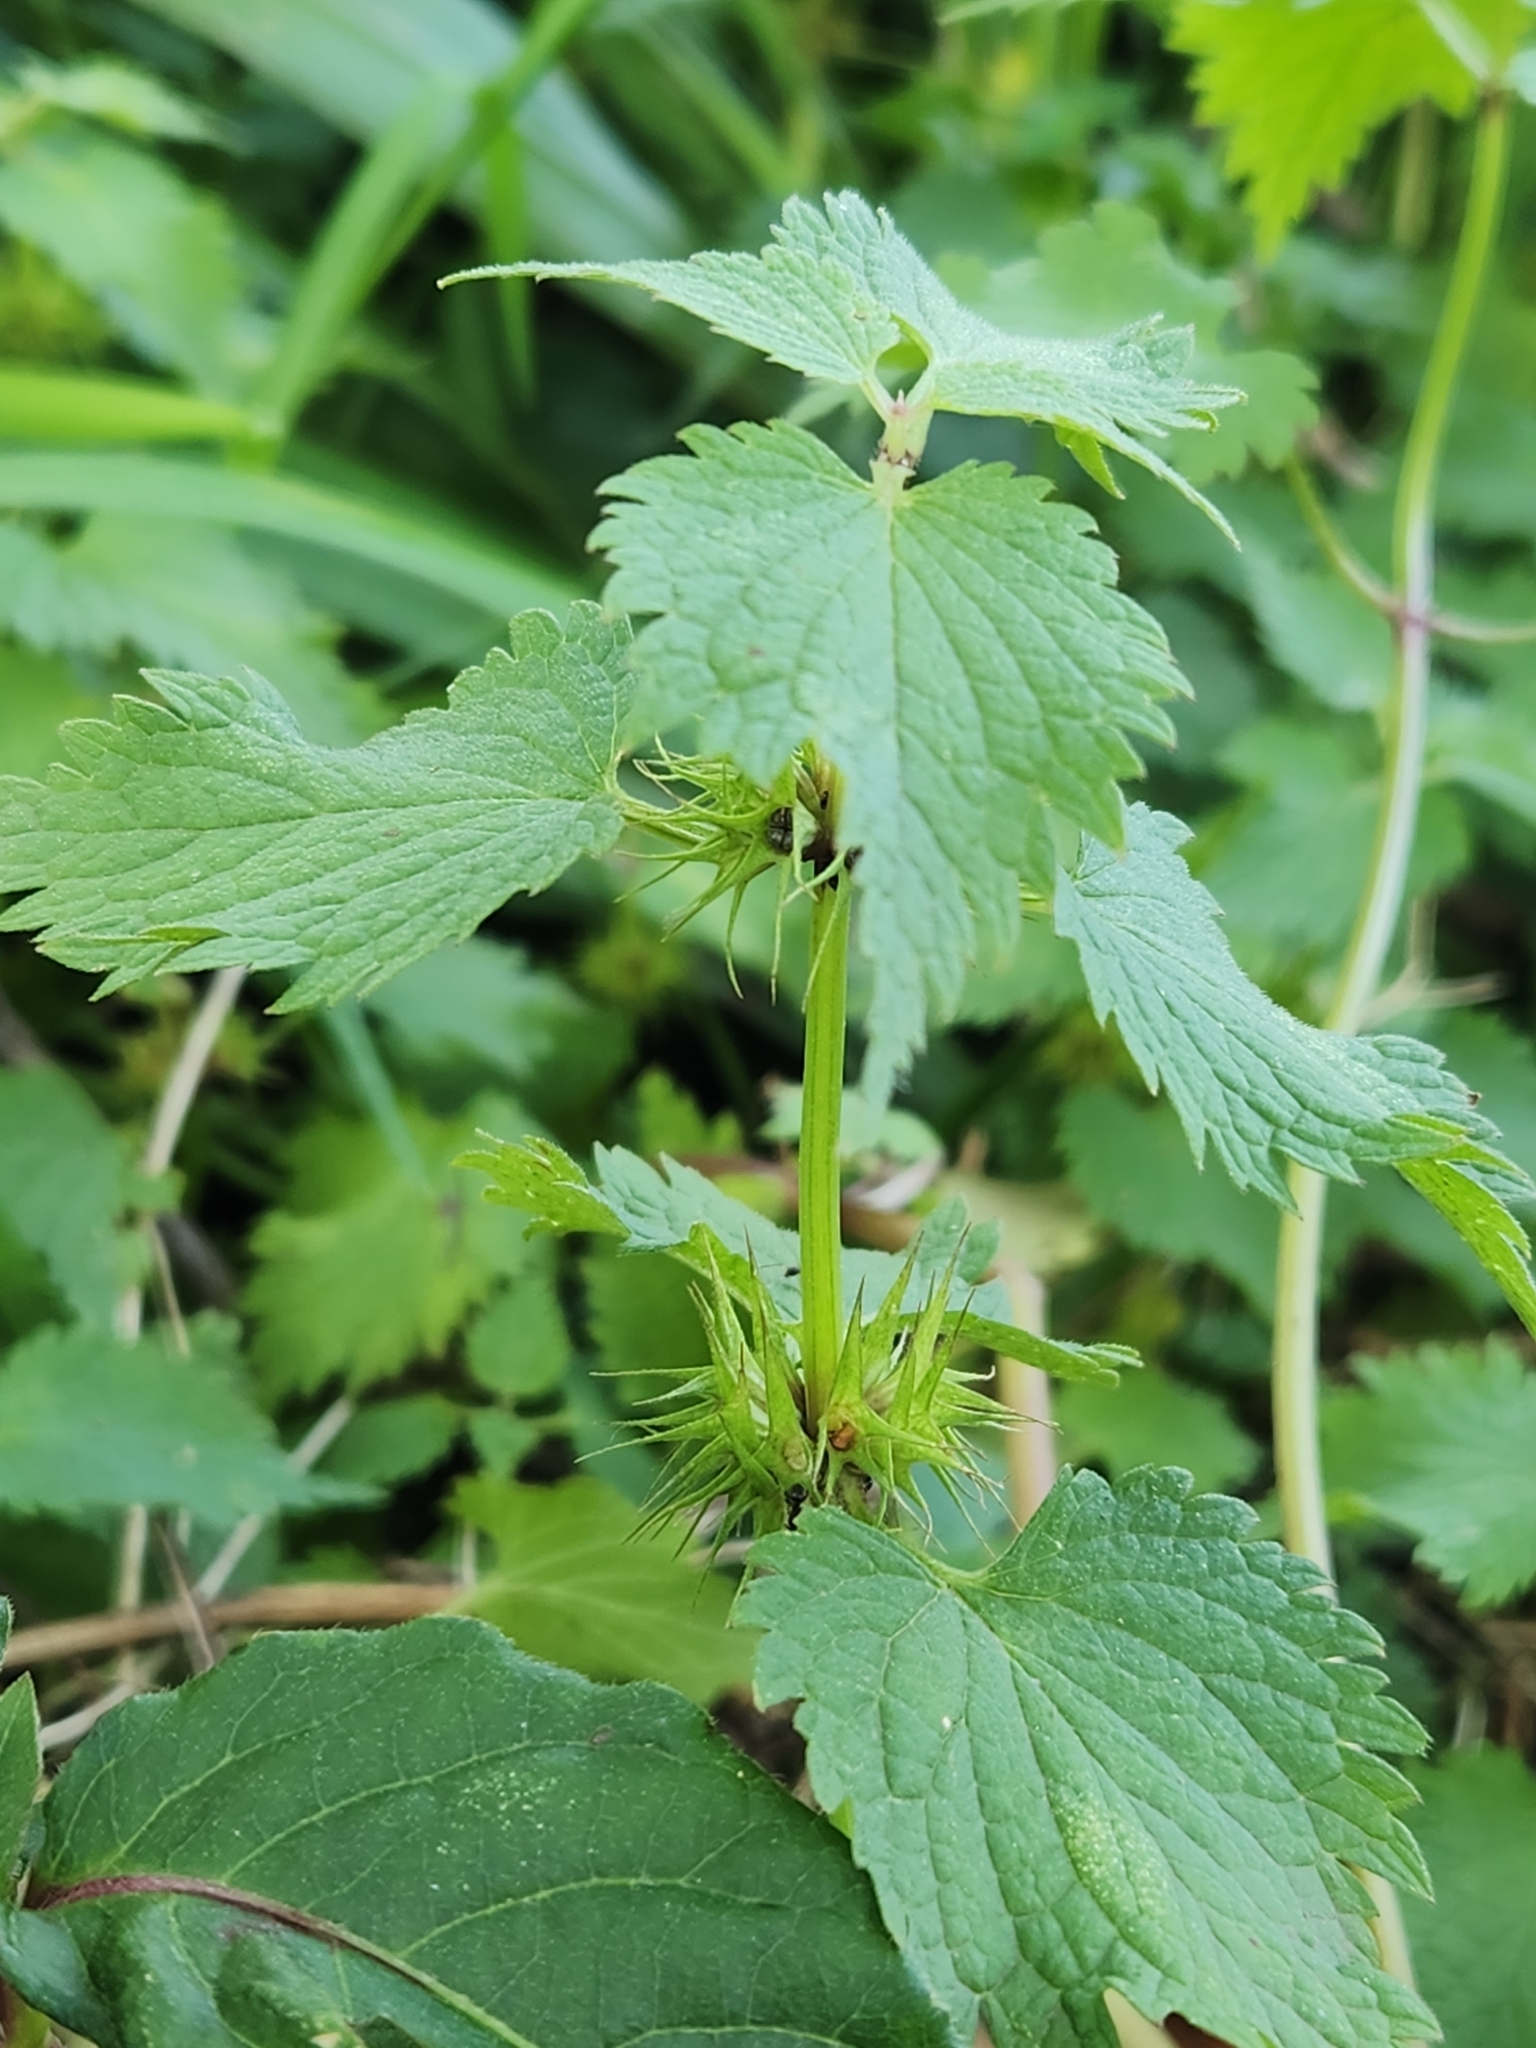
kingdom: Plantae
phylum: Tracheophyta
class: Magnoliopsida
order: Lamiales
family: Lamiaceae
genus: Lamium
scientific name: Lamium album
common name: White dead-nettle
